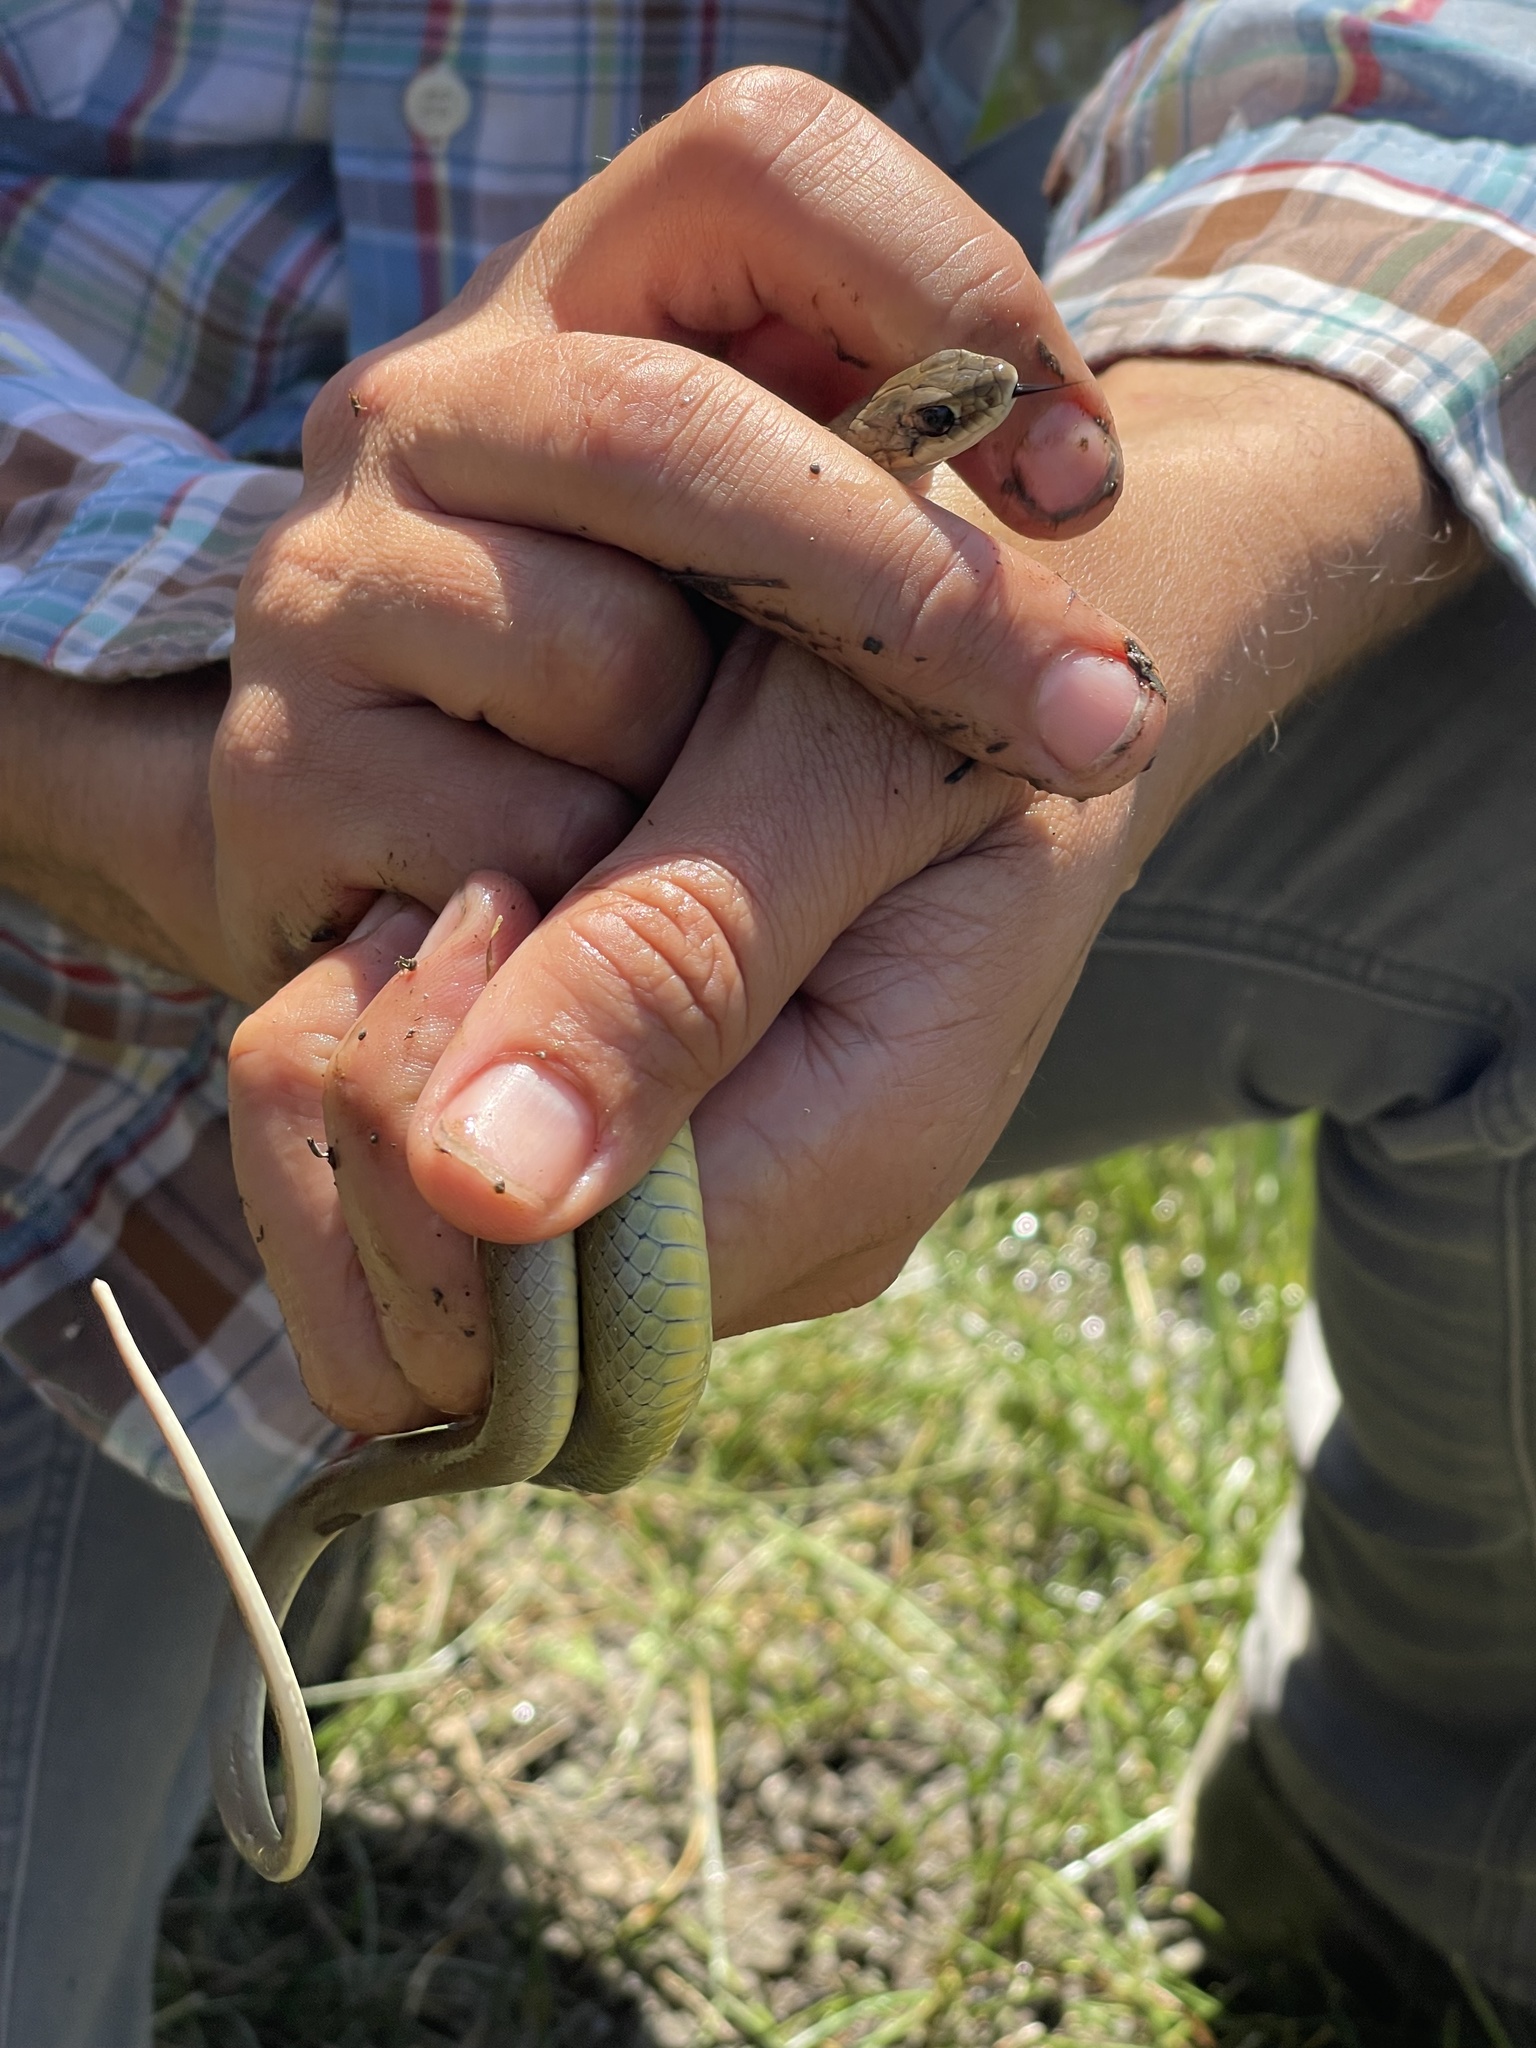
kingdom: Animalia
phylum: Chordata
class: Squamata
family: Colubridae
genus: Coluber
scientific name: Coluber constrictor
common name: Eastern racer
